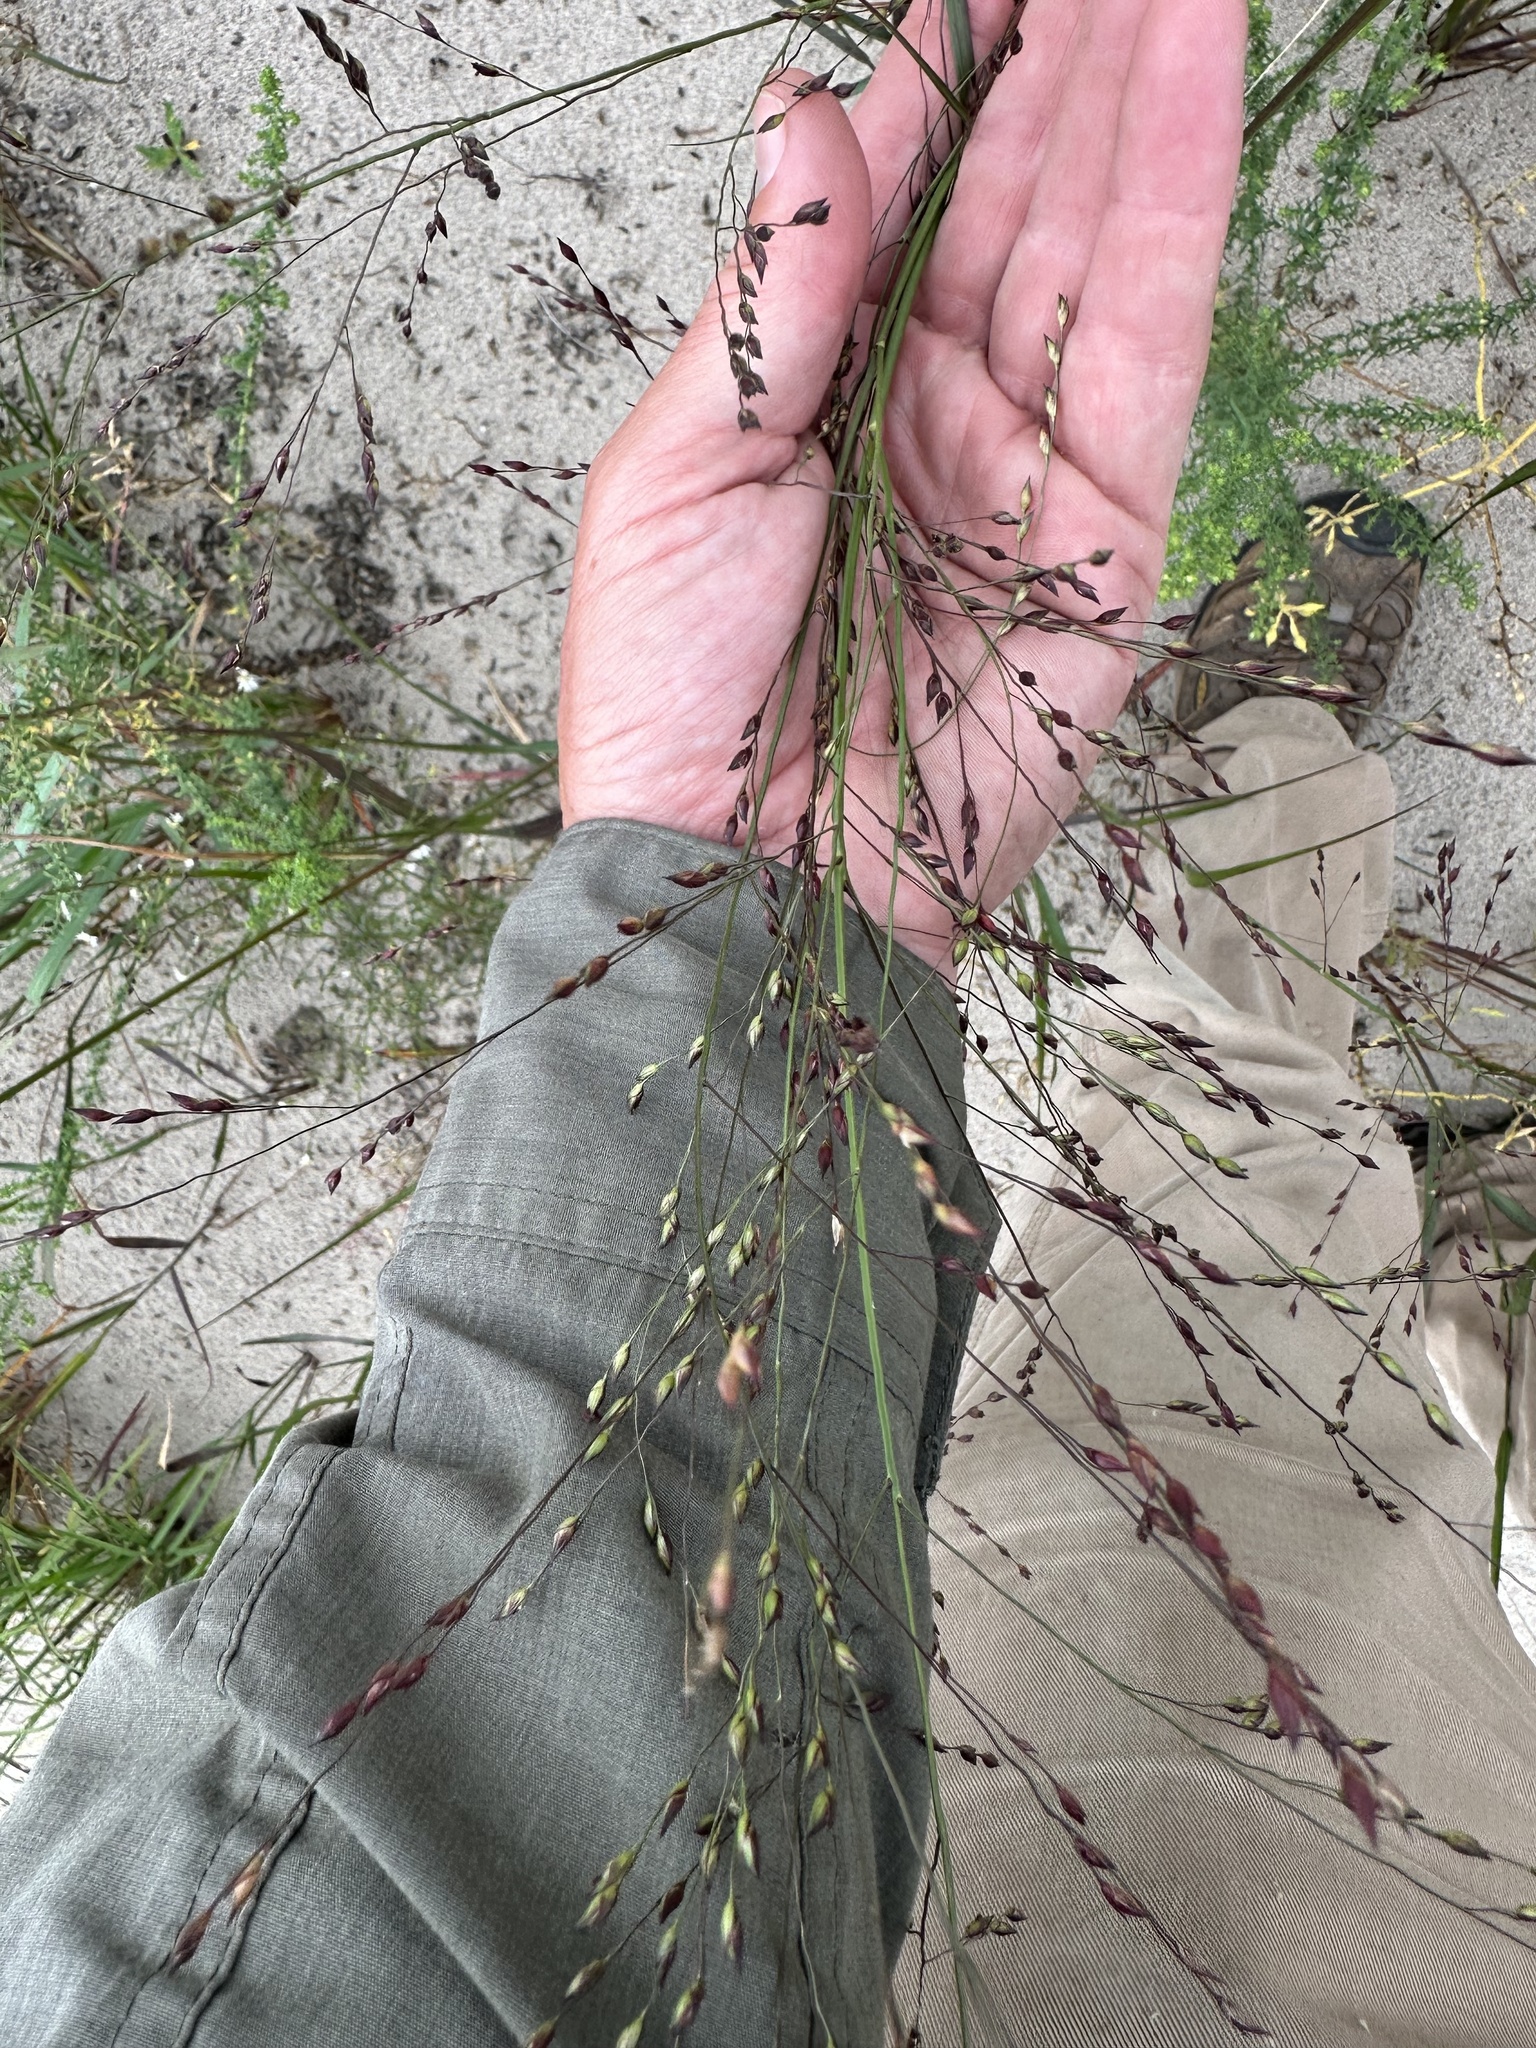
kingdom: Plantae
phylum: Tracheophyta
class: Liliopsida
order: Poales
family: Poaceae
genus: Panicum
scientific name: Panicum virgatum
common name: Switchgrass
